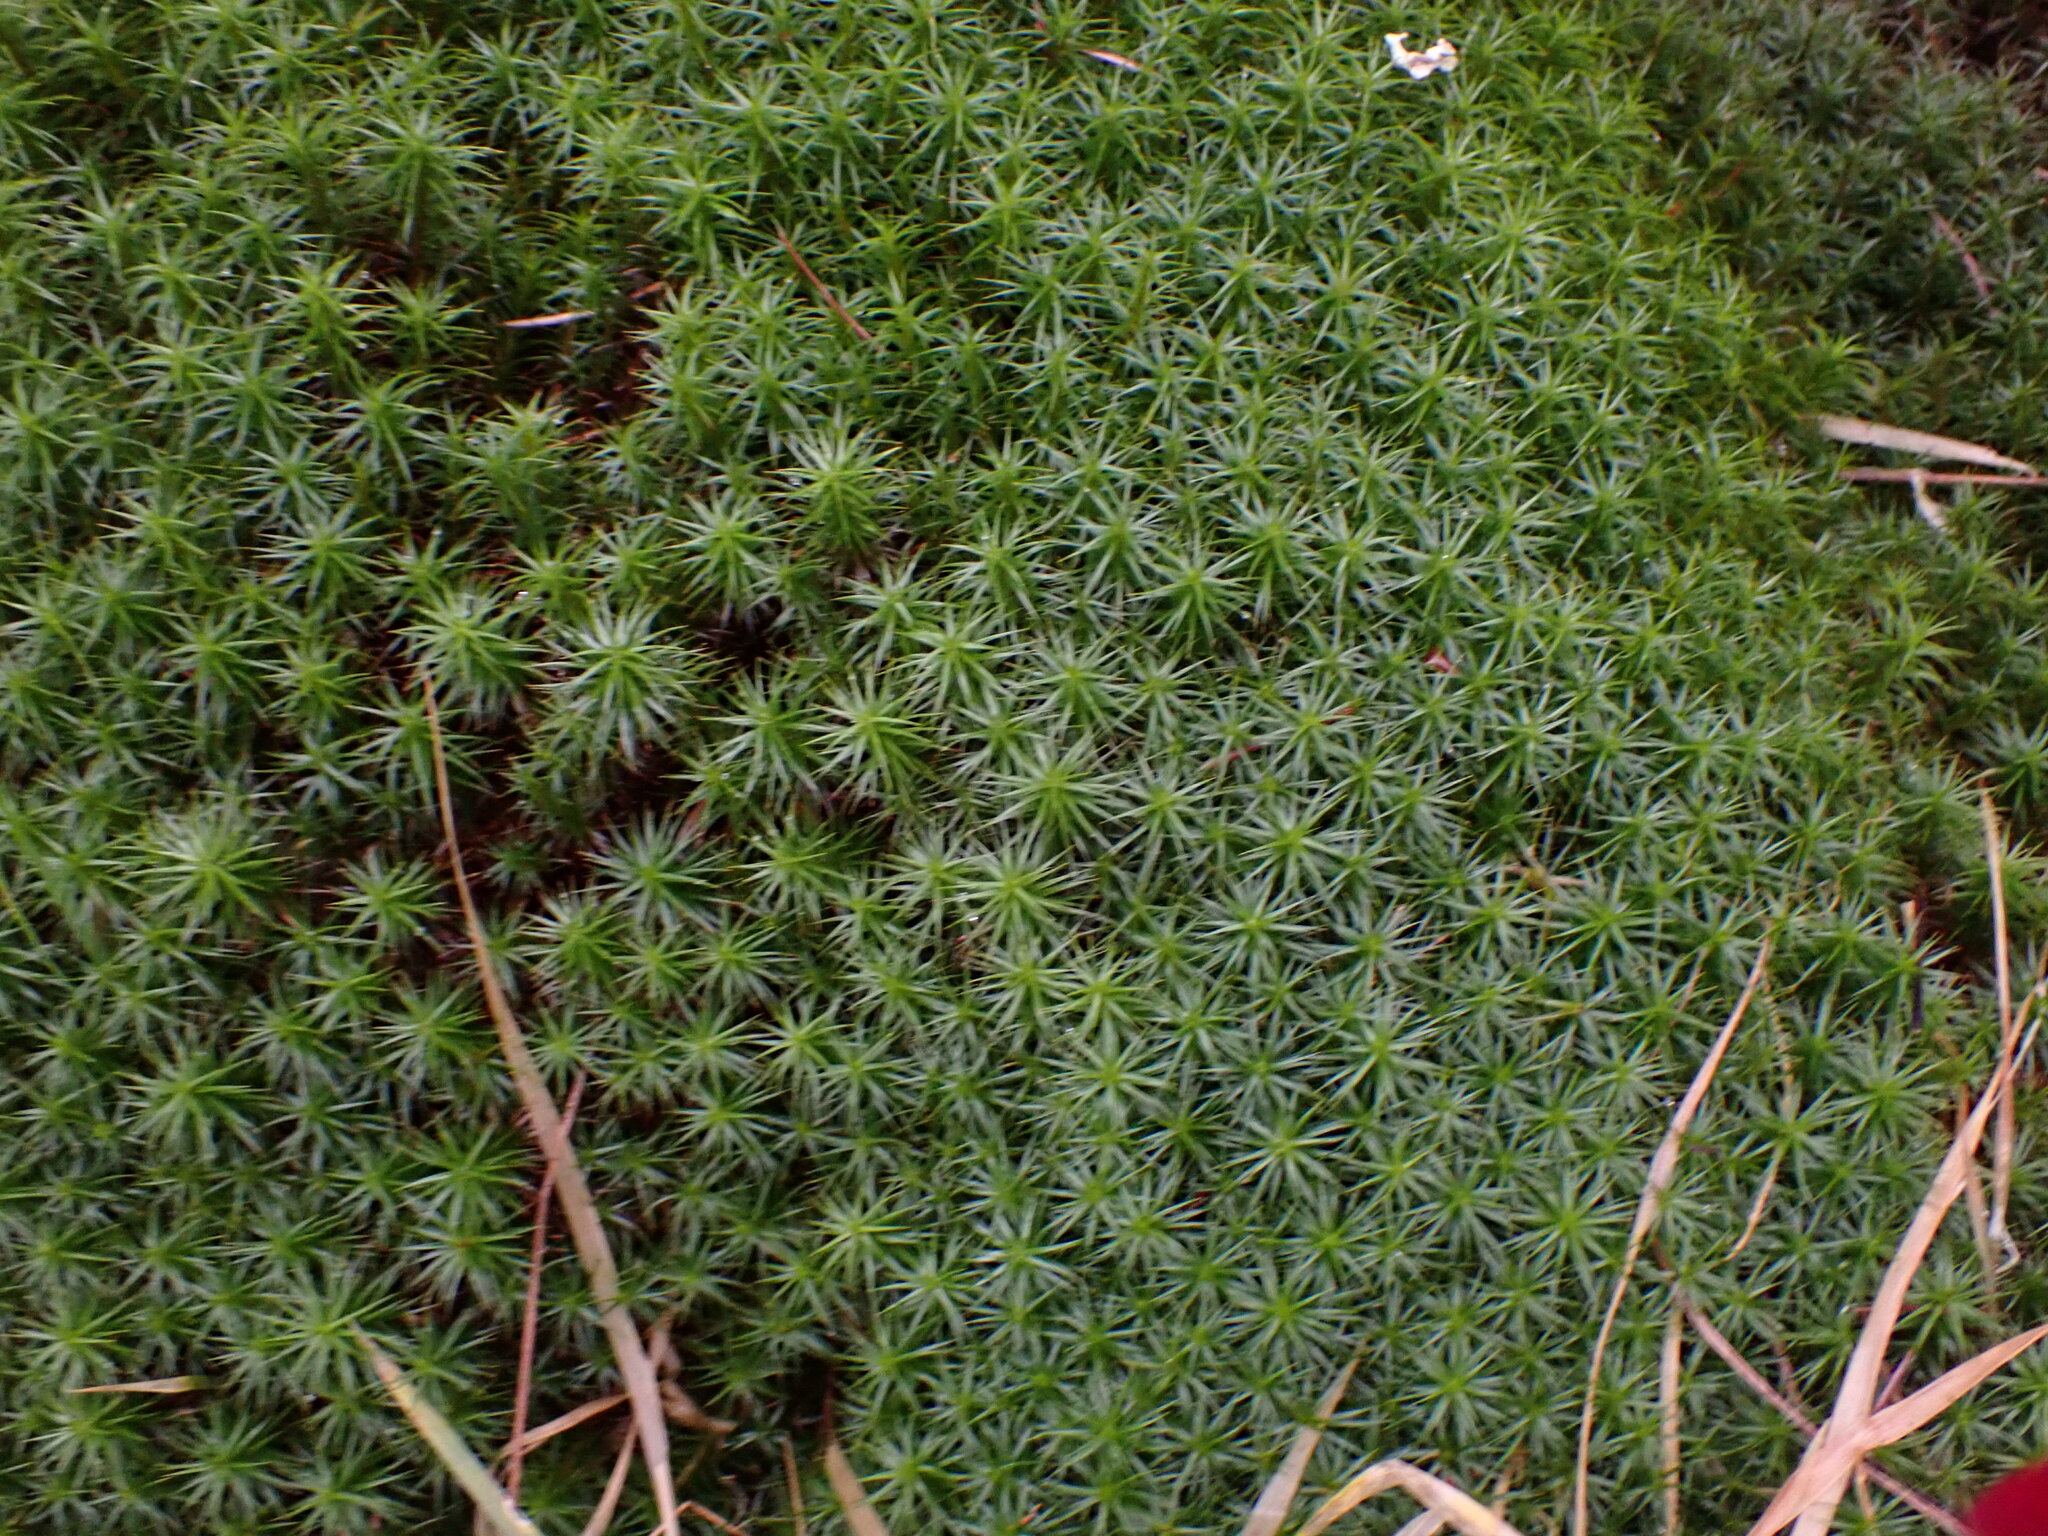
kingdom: Plantae
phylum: Bryophyta
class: Polytrichopsida
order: Polytrichales
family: Polytrichaceae
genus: Polytrichum
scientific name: Polytrichum commune
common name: Common haircap
